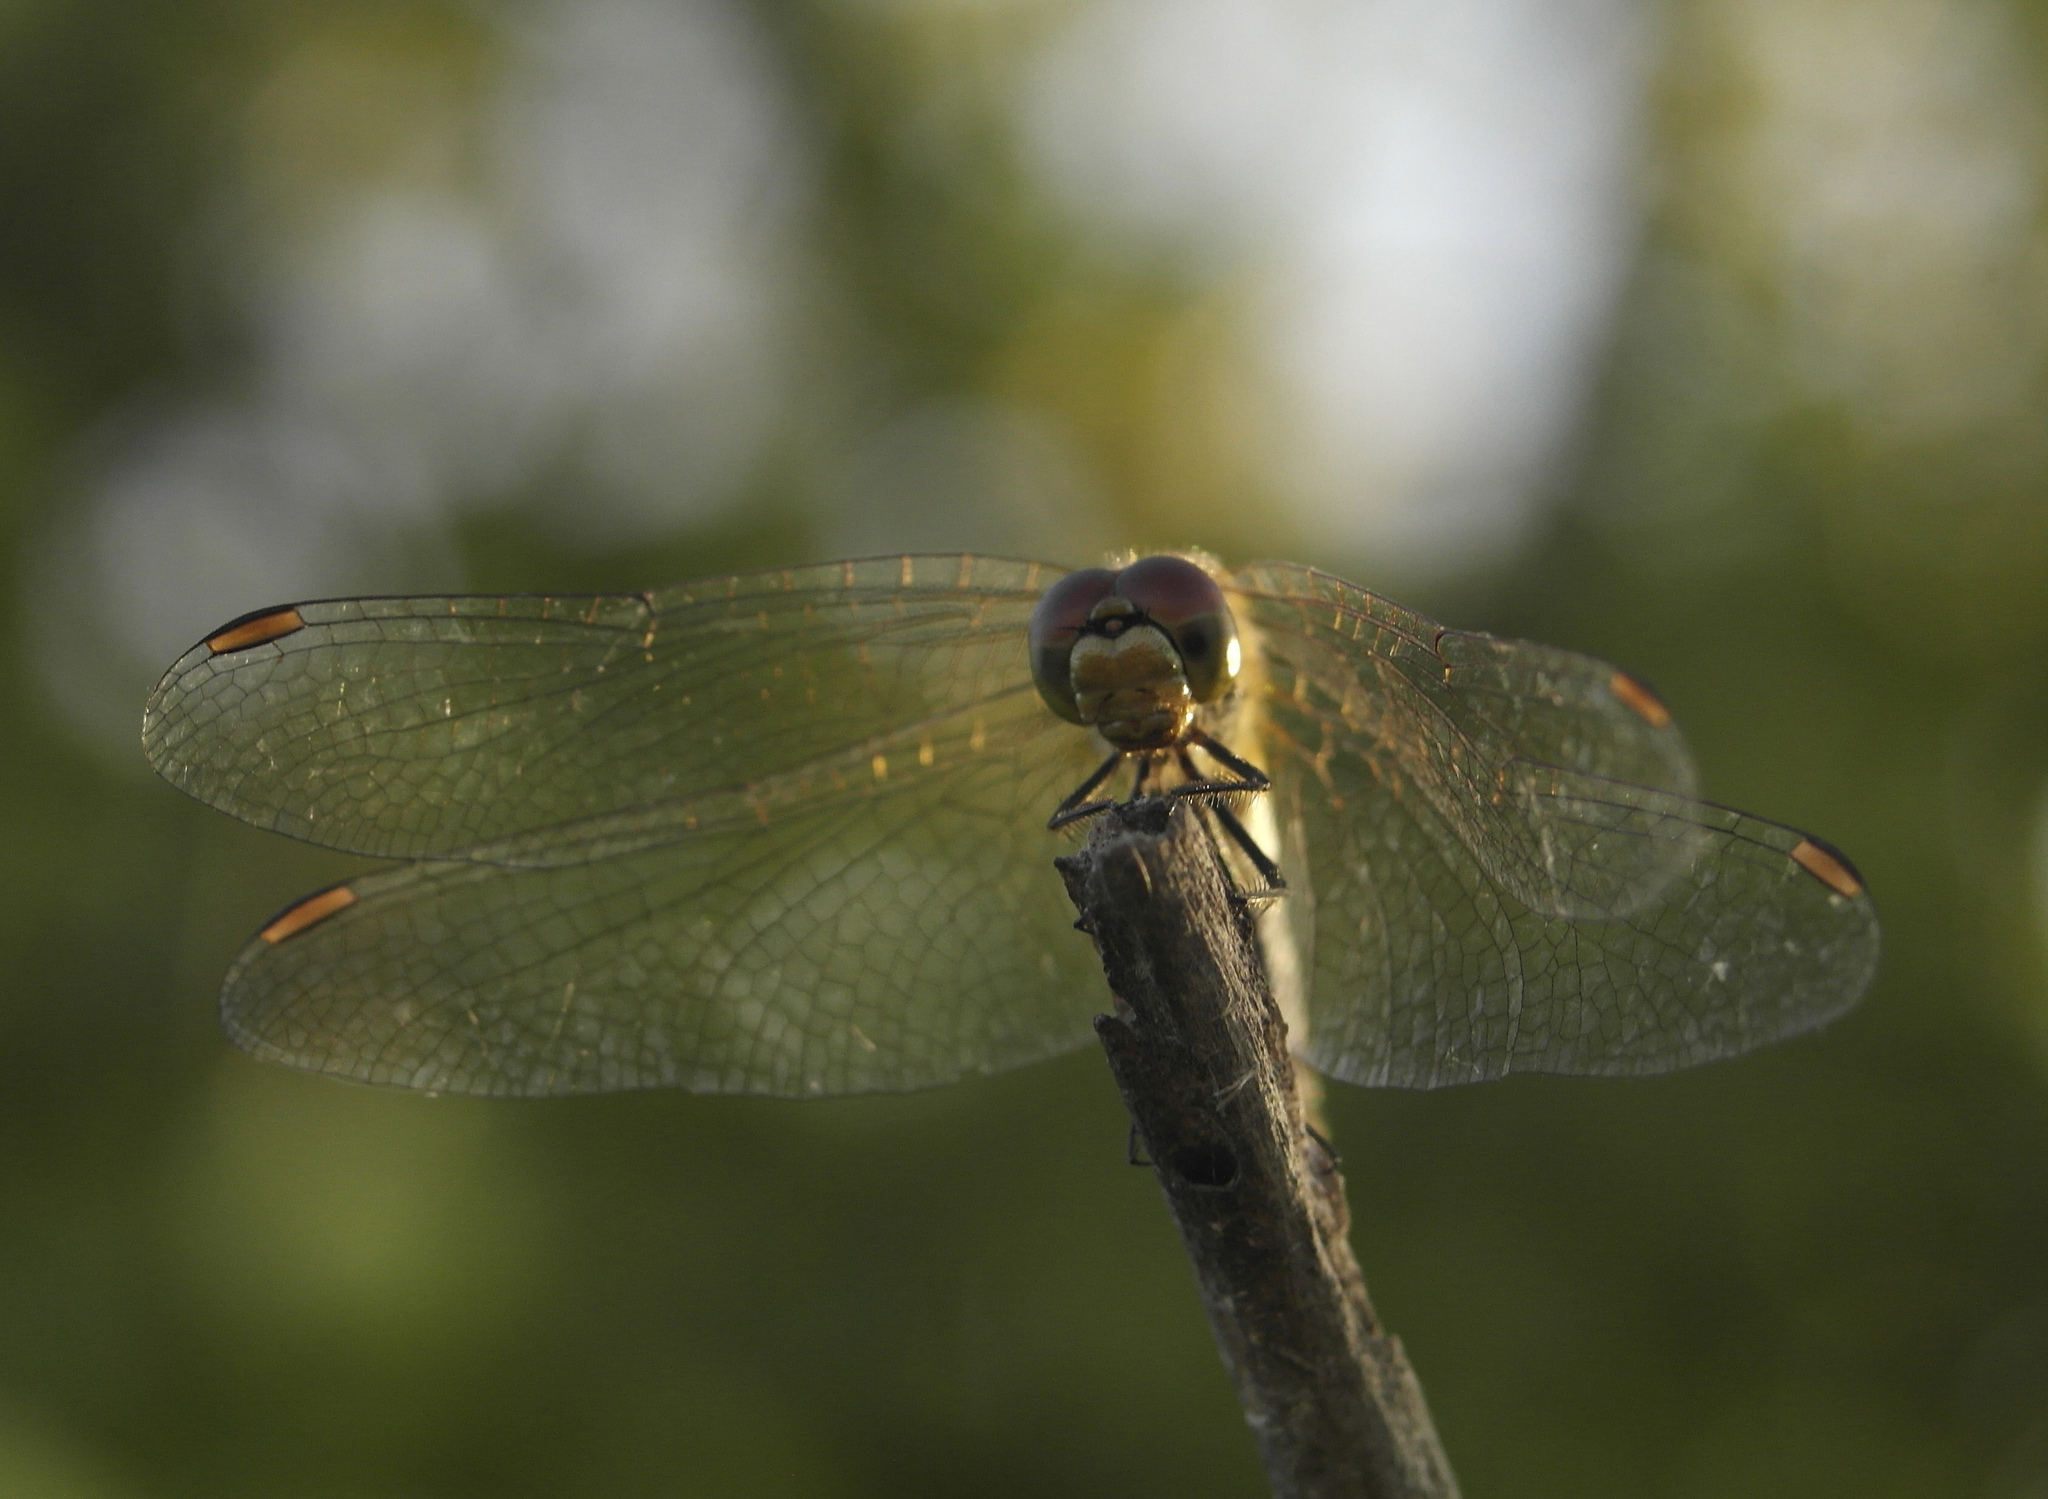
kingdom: Animalia
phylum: Arthropoda
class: Insecta
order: Odonata
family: Libellulidae
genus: Sympetrum
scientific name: Sympetrum sanguineum
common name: Ruddy darter
